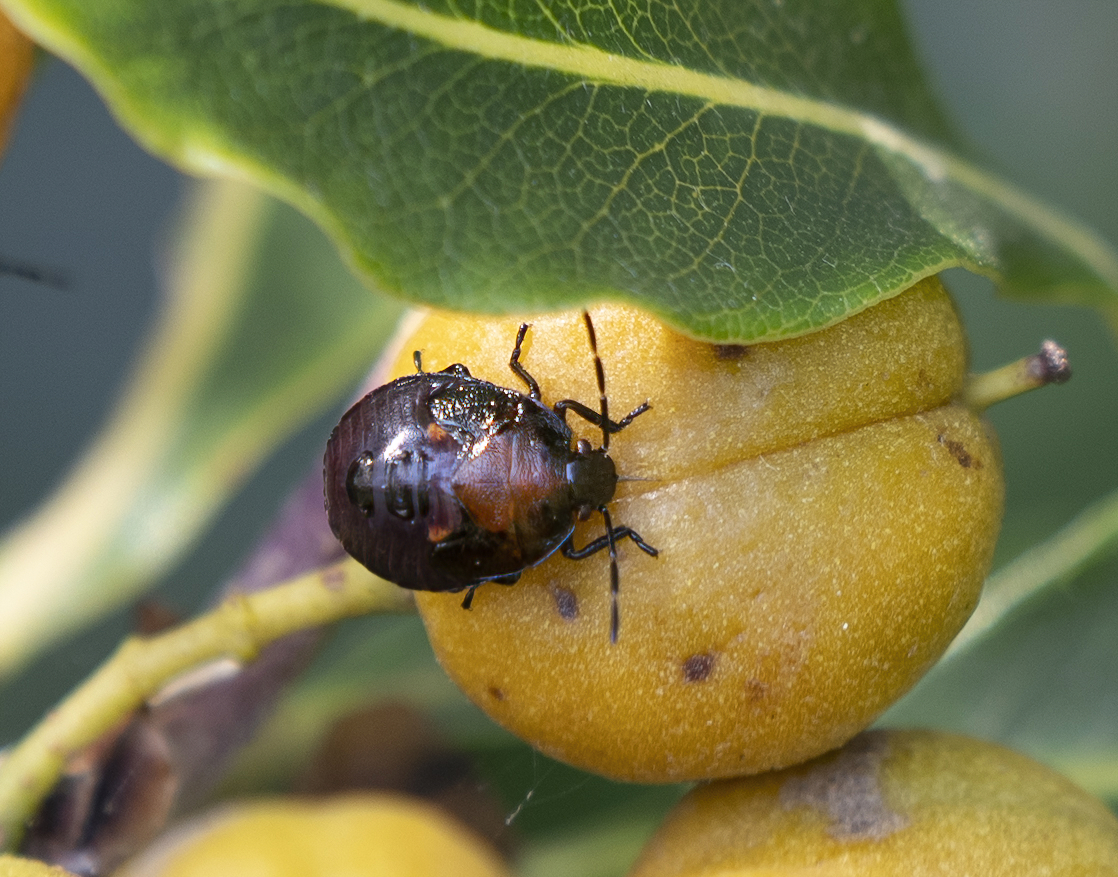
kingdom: Animalia
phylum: Arthropoda
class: Insecta
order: Hemiptera
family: Pentatomidae
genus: Monteithiella
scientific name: Monteithiella
